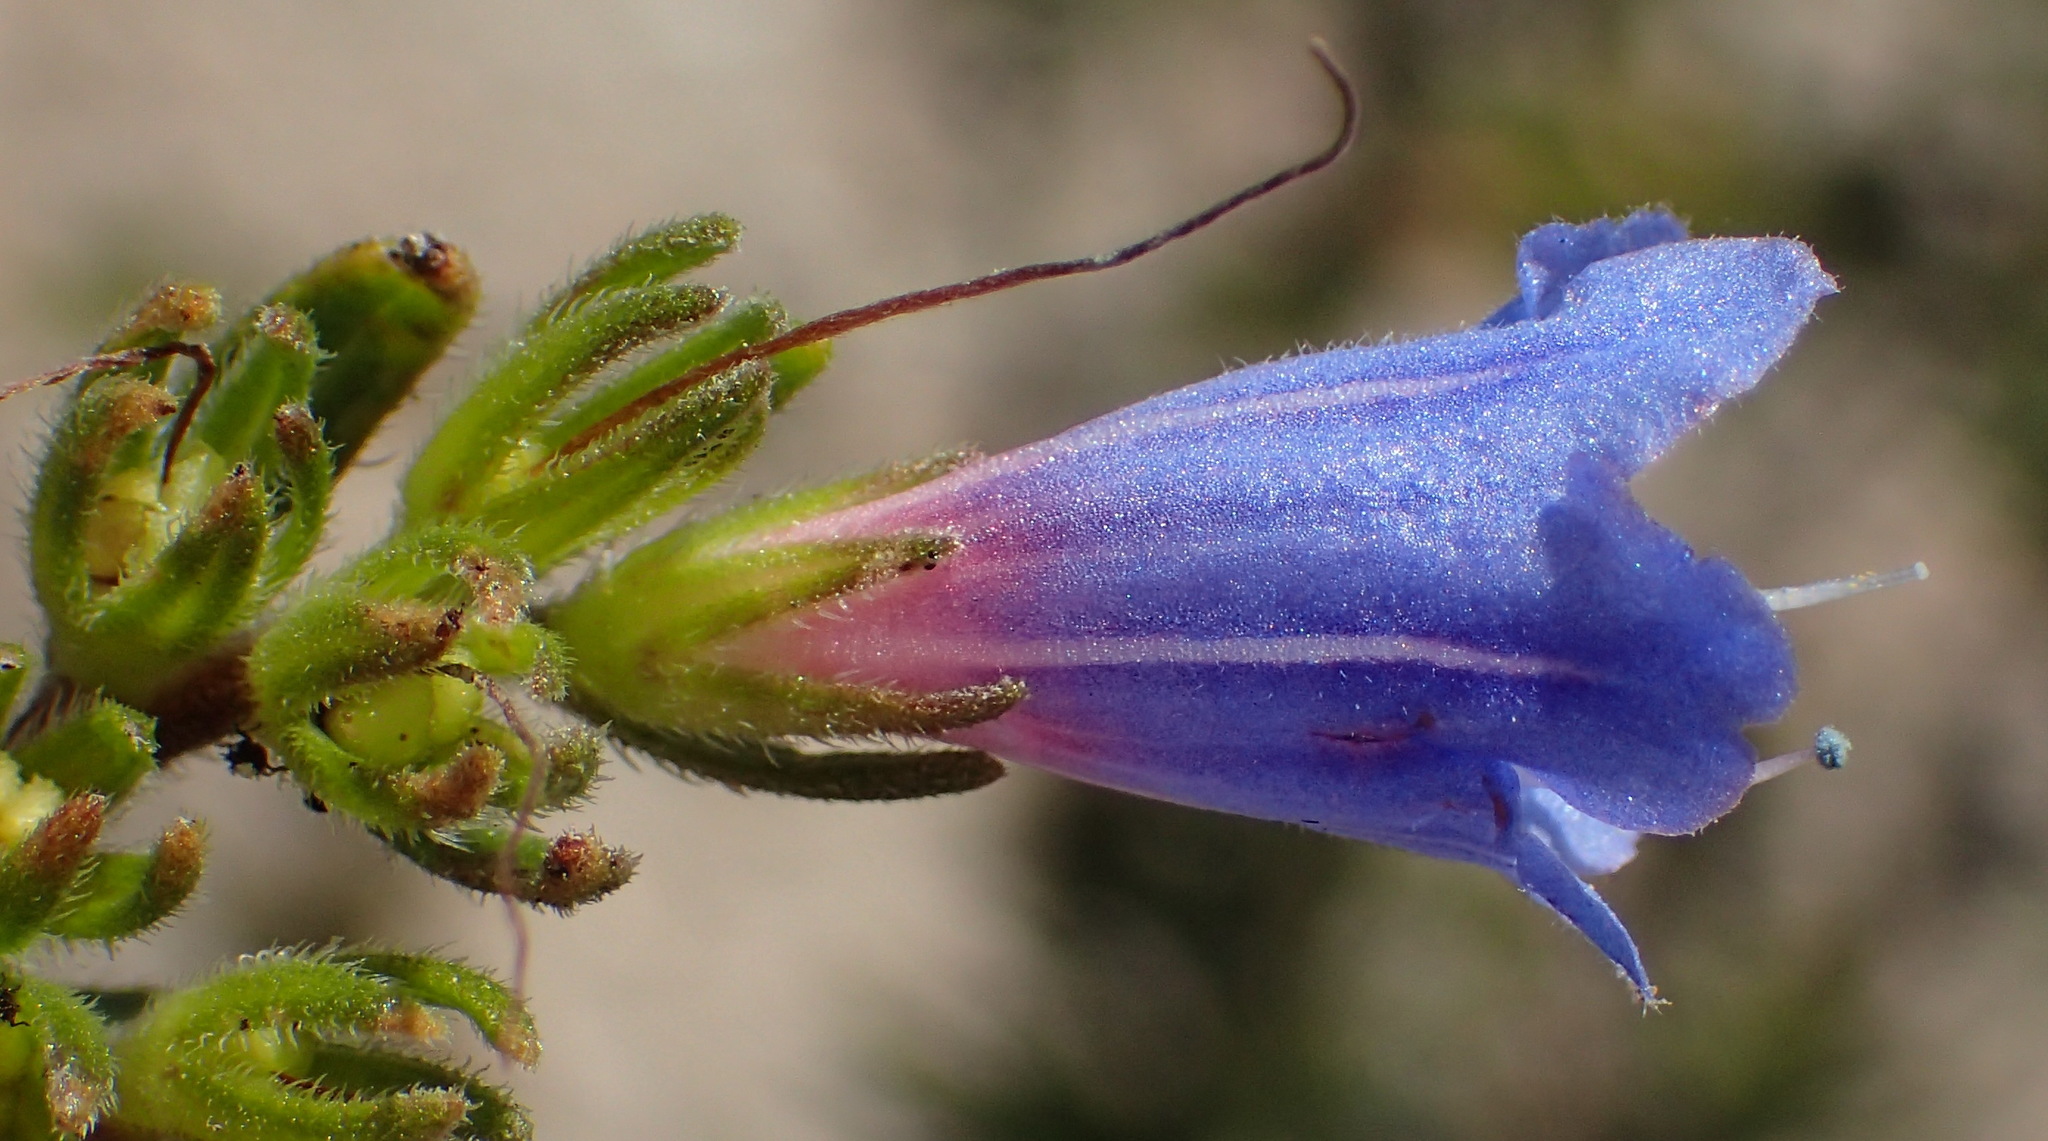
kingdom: Plantae
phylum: Tracheophyta
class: Magnoliopsida
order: Boraginales
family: Boraginaceae
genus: Lobostemon
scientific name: Lobostemon fruticosus
